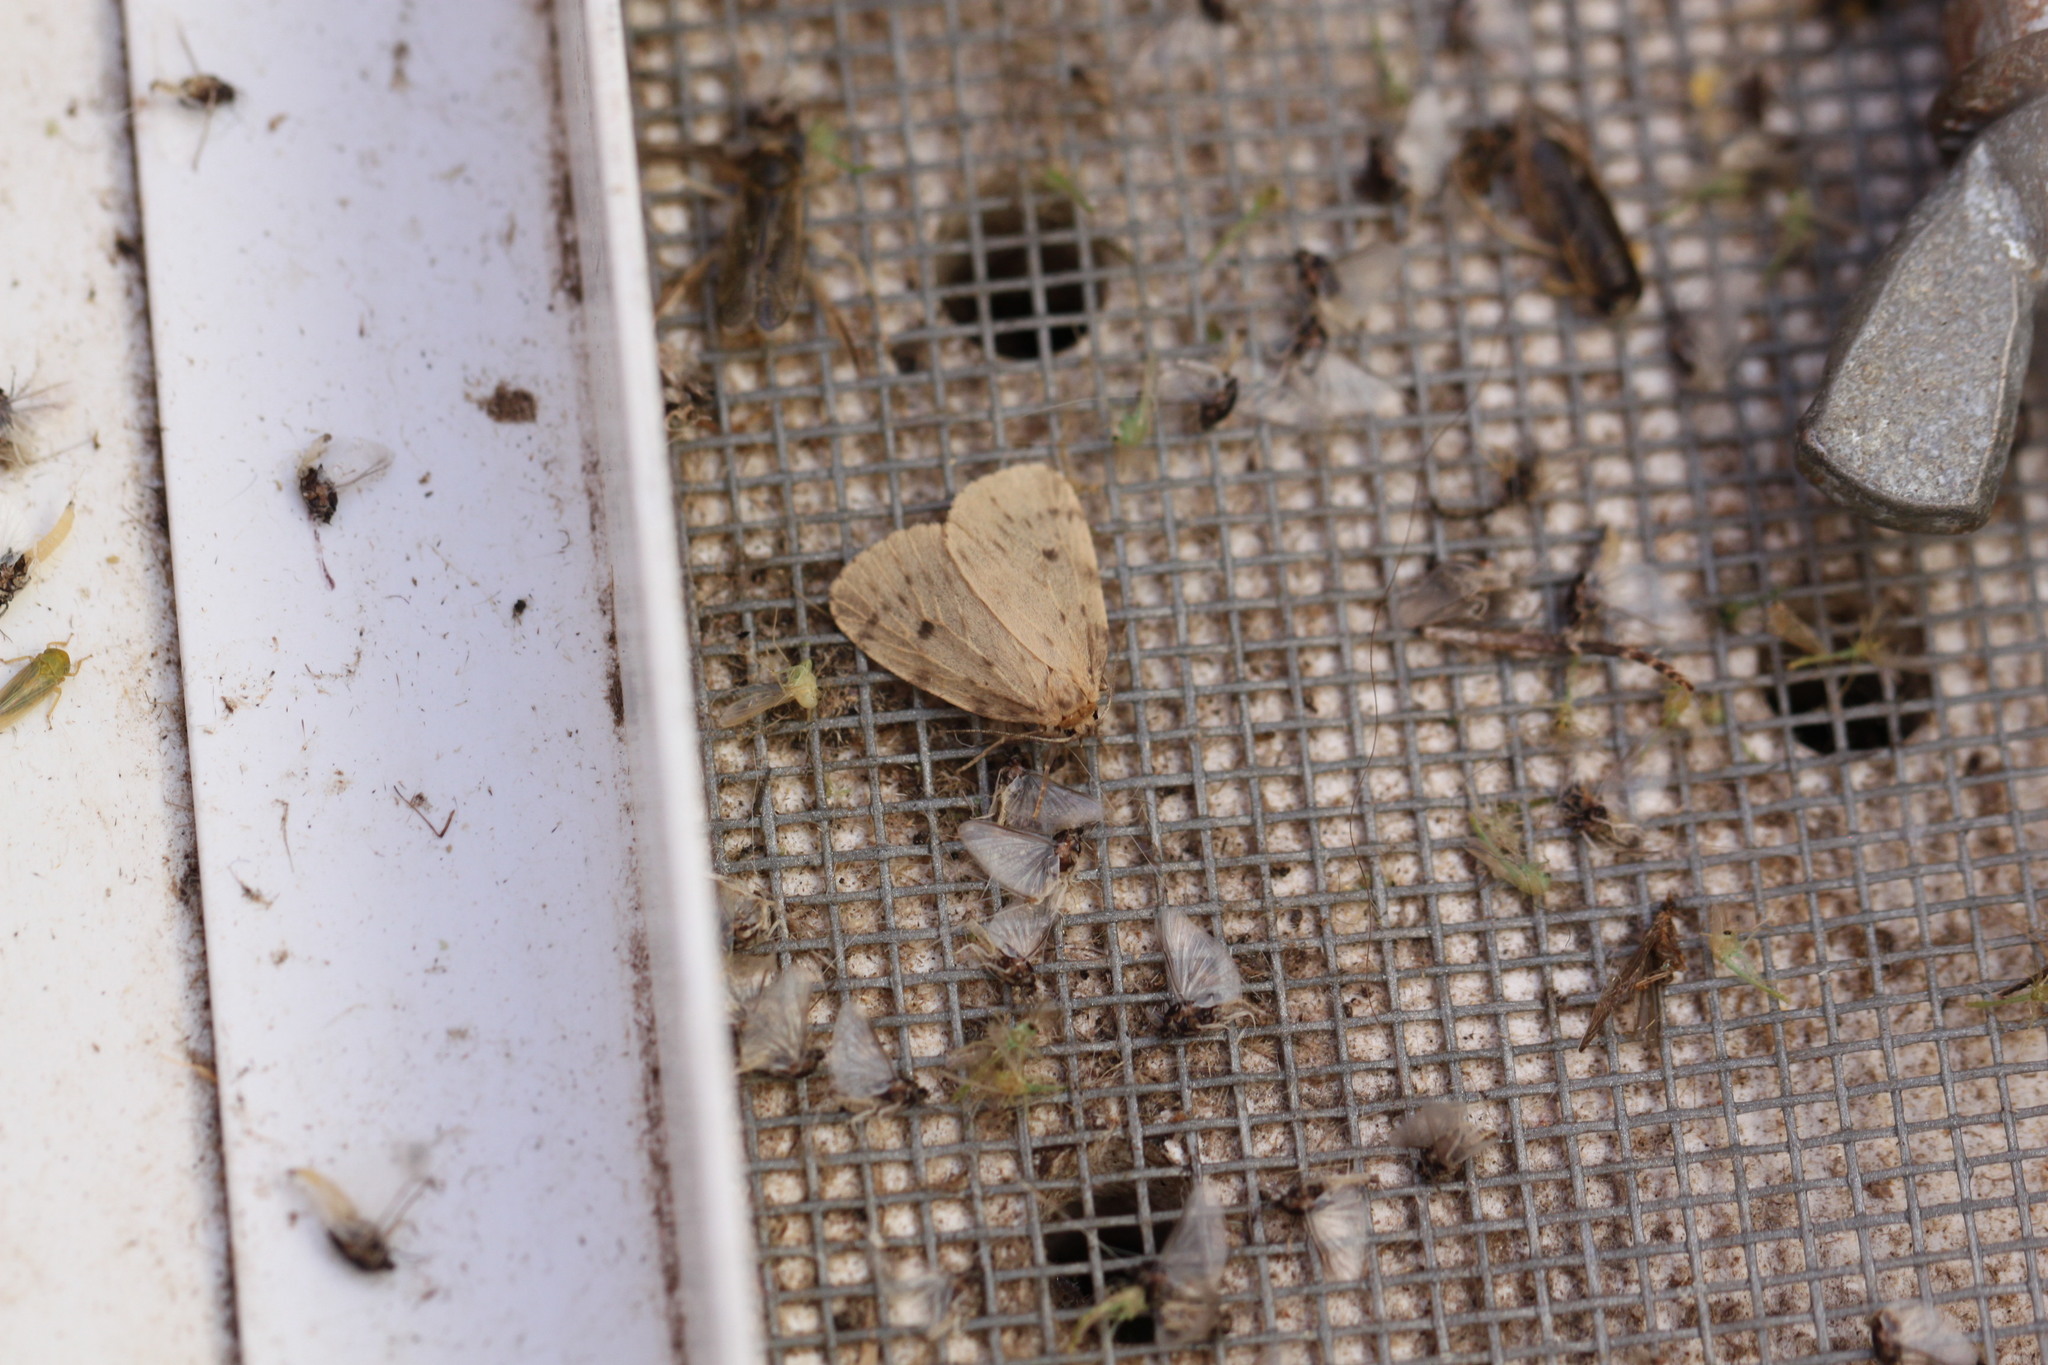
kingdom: Animalia
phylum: Arthropoda
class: Insecta
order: Lepidoptera
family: Erebidae
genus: Thumatha
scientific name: Thumatha senex
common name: Round-winged muslin
